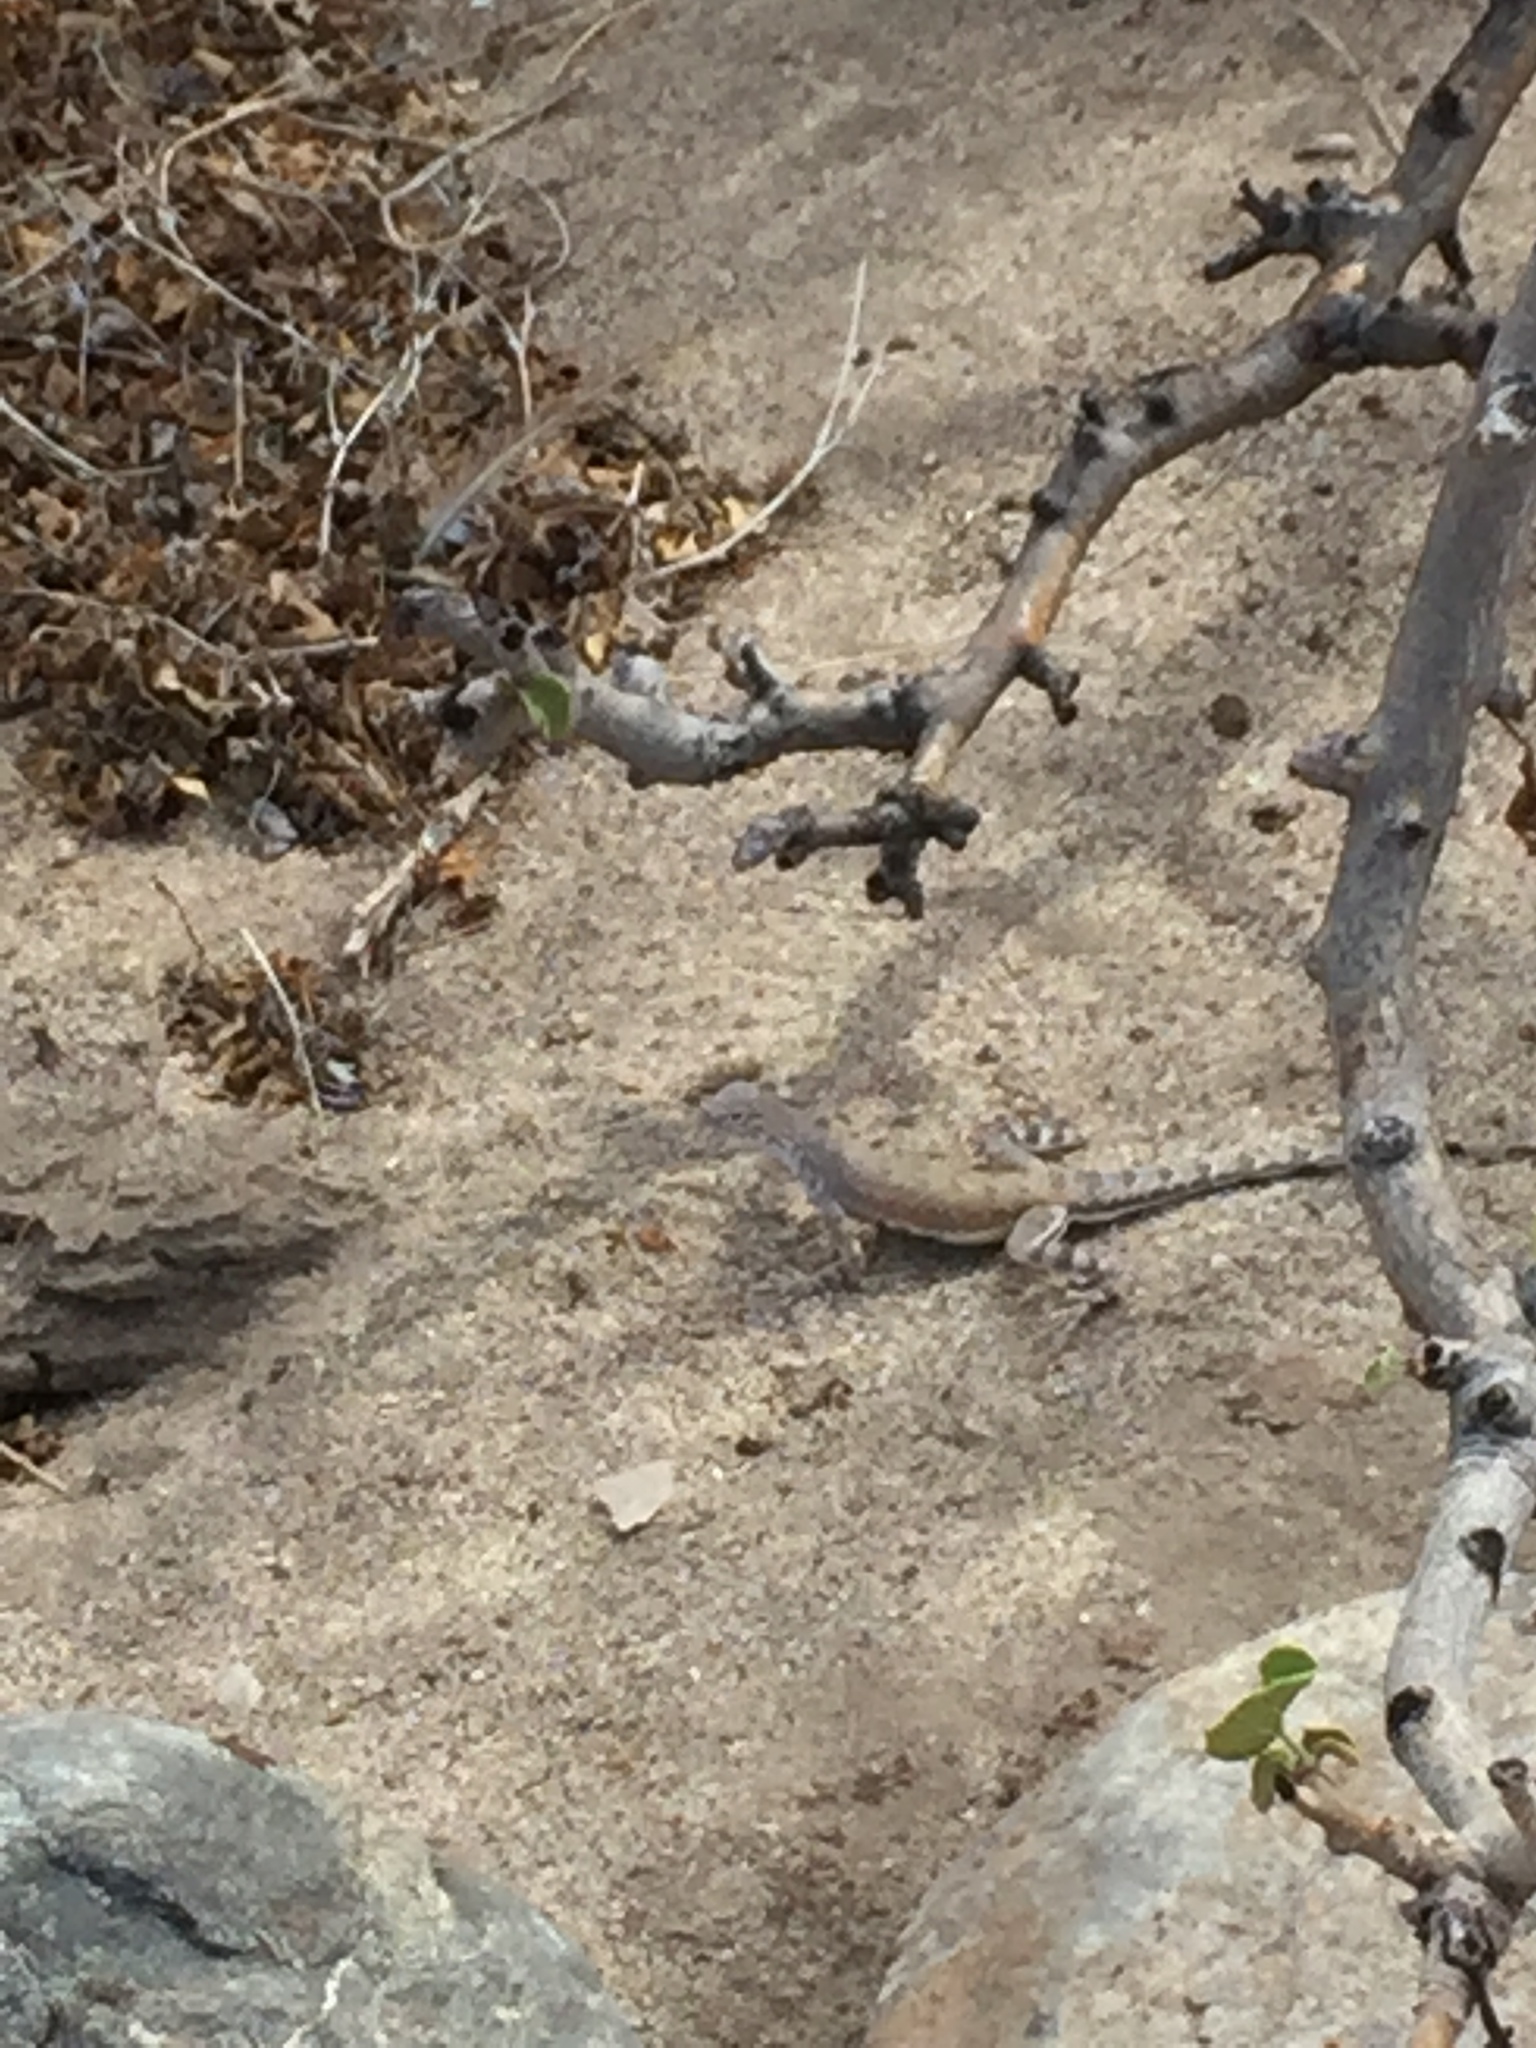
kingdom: Animalia
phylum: Chordata
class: Squamata
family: Phrynosomatidae
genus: Callisaurus
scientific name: Callisaurus draconoides
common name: Zebra-tailed lizard
